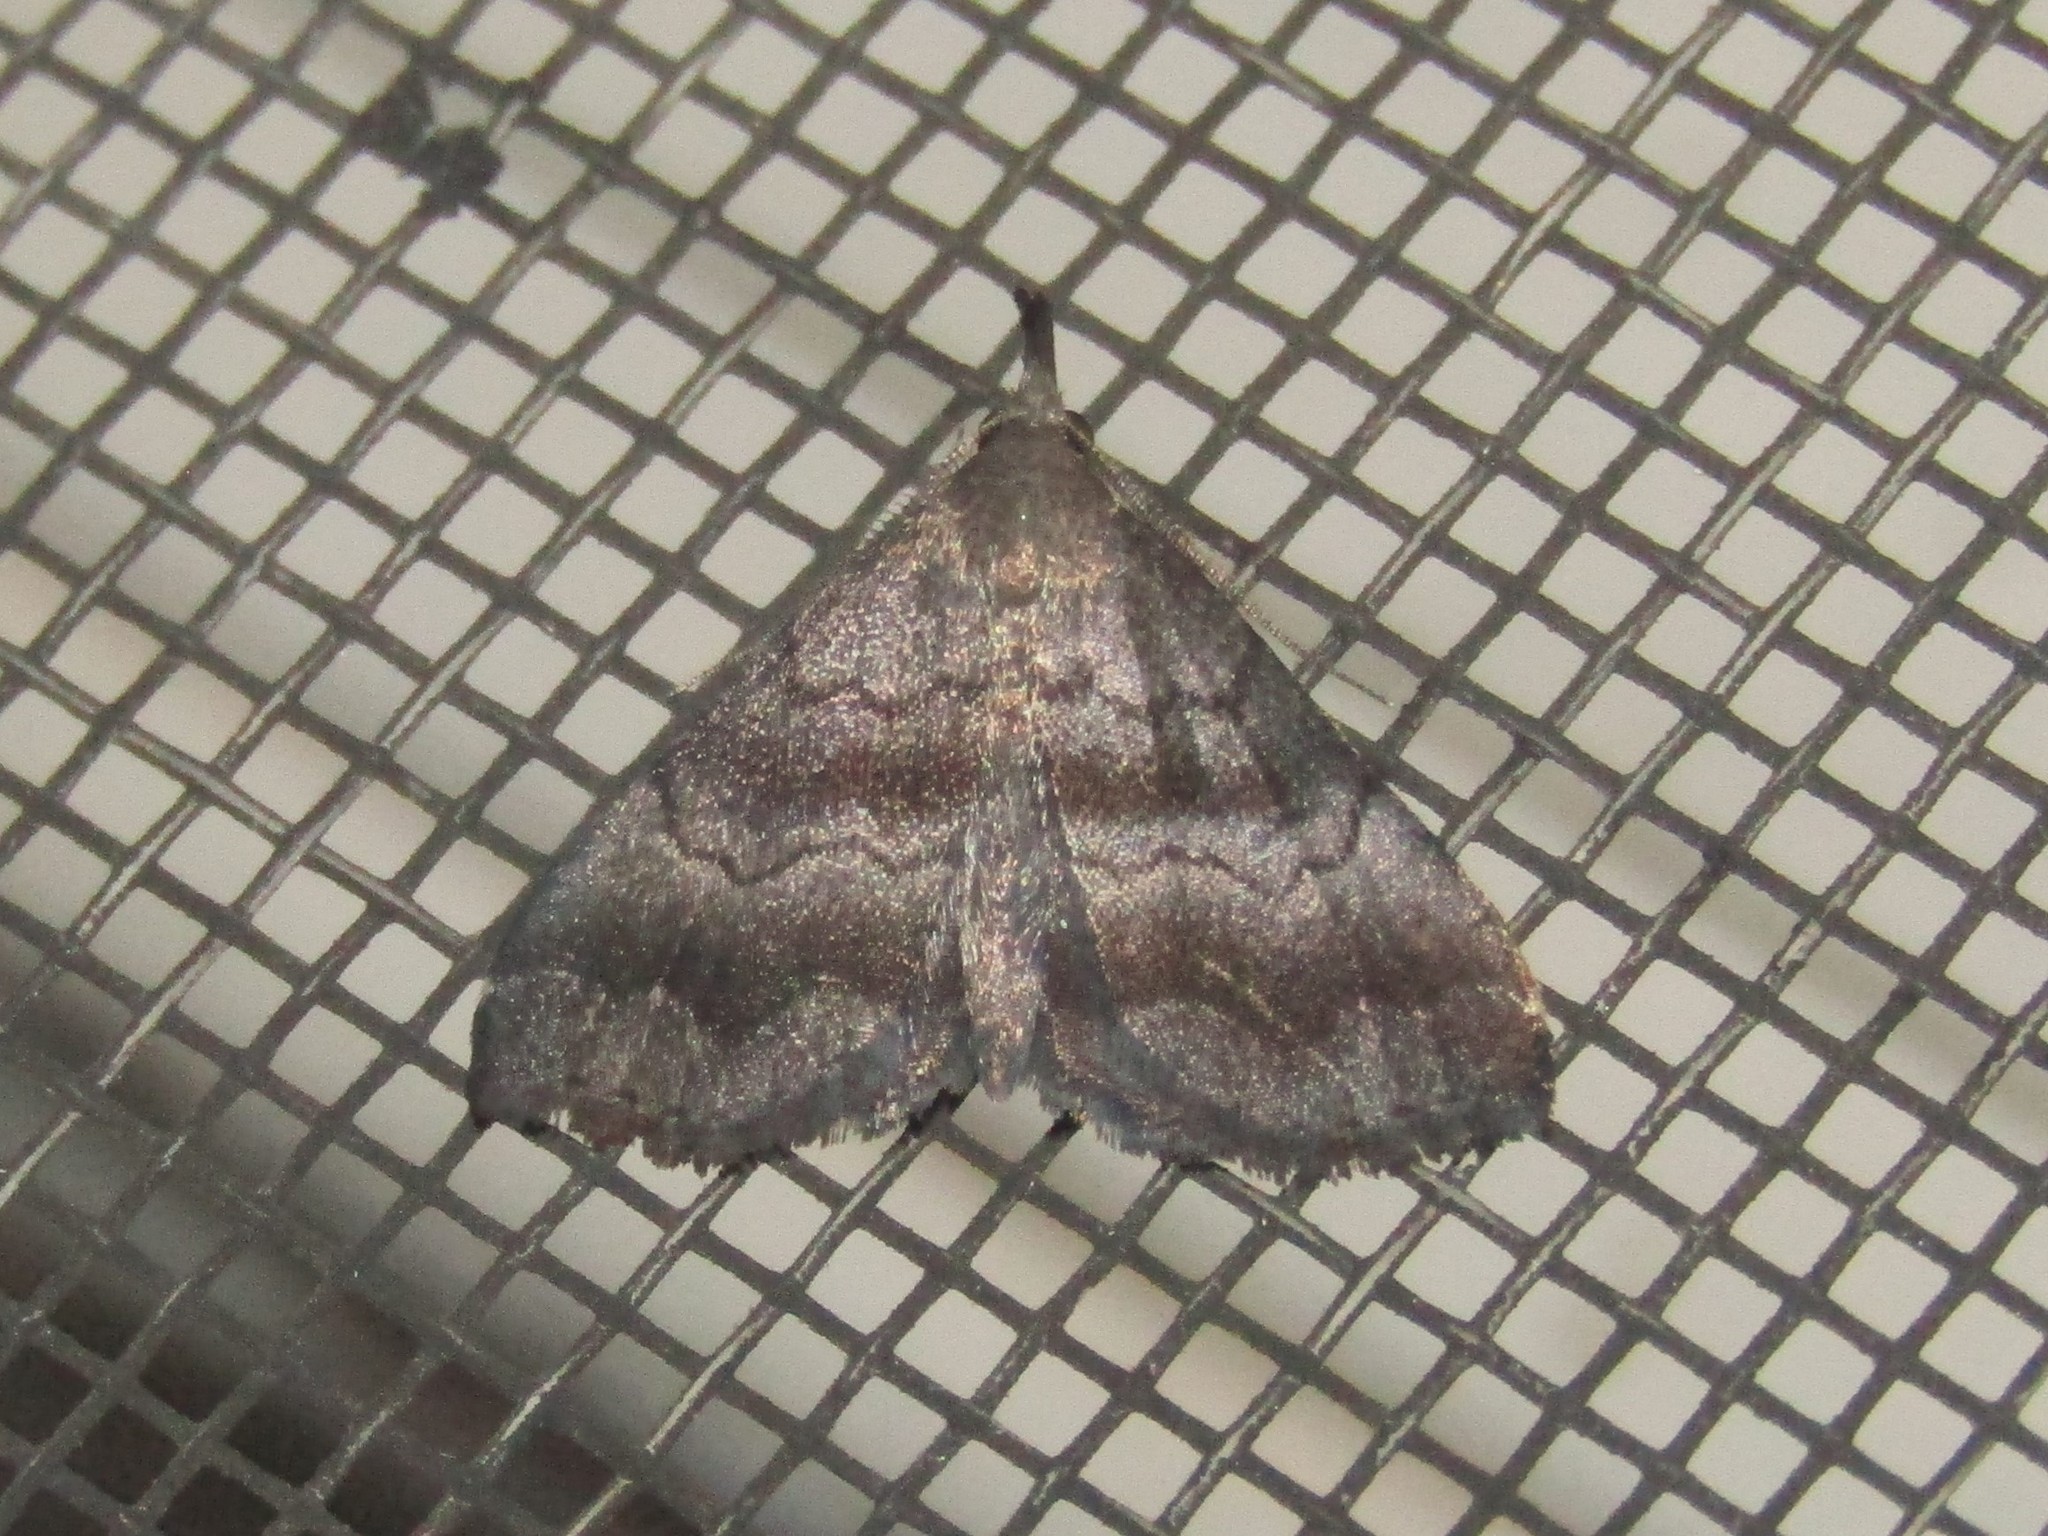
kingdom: Animalia
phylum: Arthropoda
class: Insecta
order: Lepidoptera
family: Erebidae
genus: Phalaenostola
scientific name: Phalaenostola larentioides
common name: Black-banded owlet
